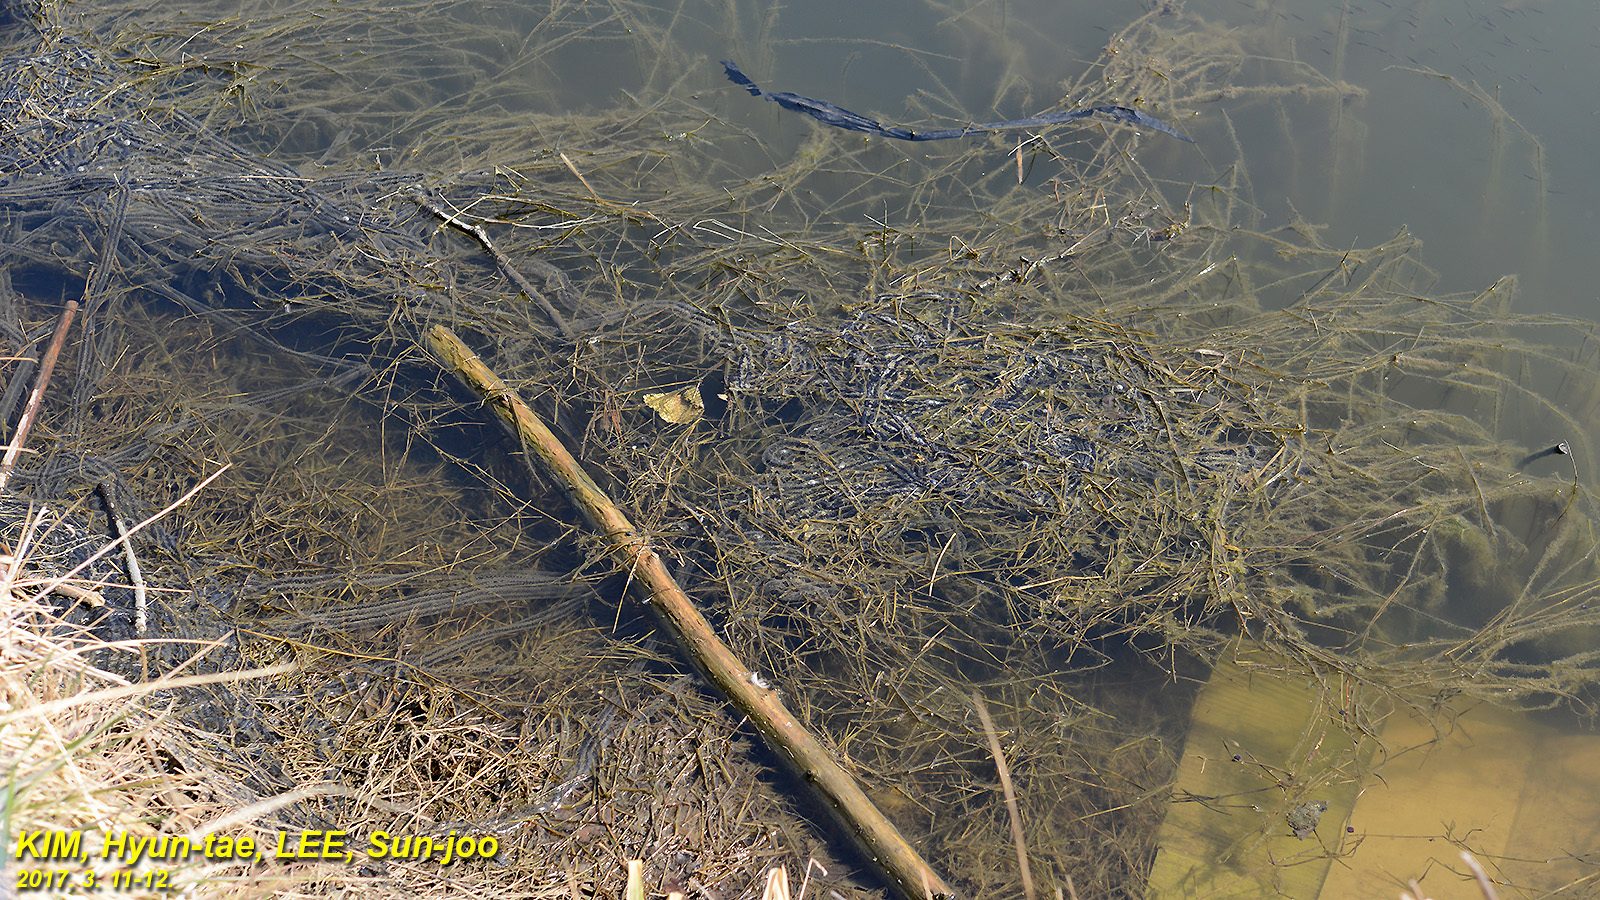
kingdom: Animalia
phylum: Chordata
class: Amphibia
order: Anura
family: Bufonidae
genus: Bufo
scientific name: Bufo gargarizans
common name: Asiatic toad
